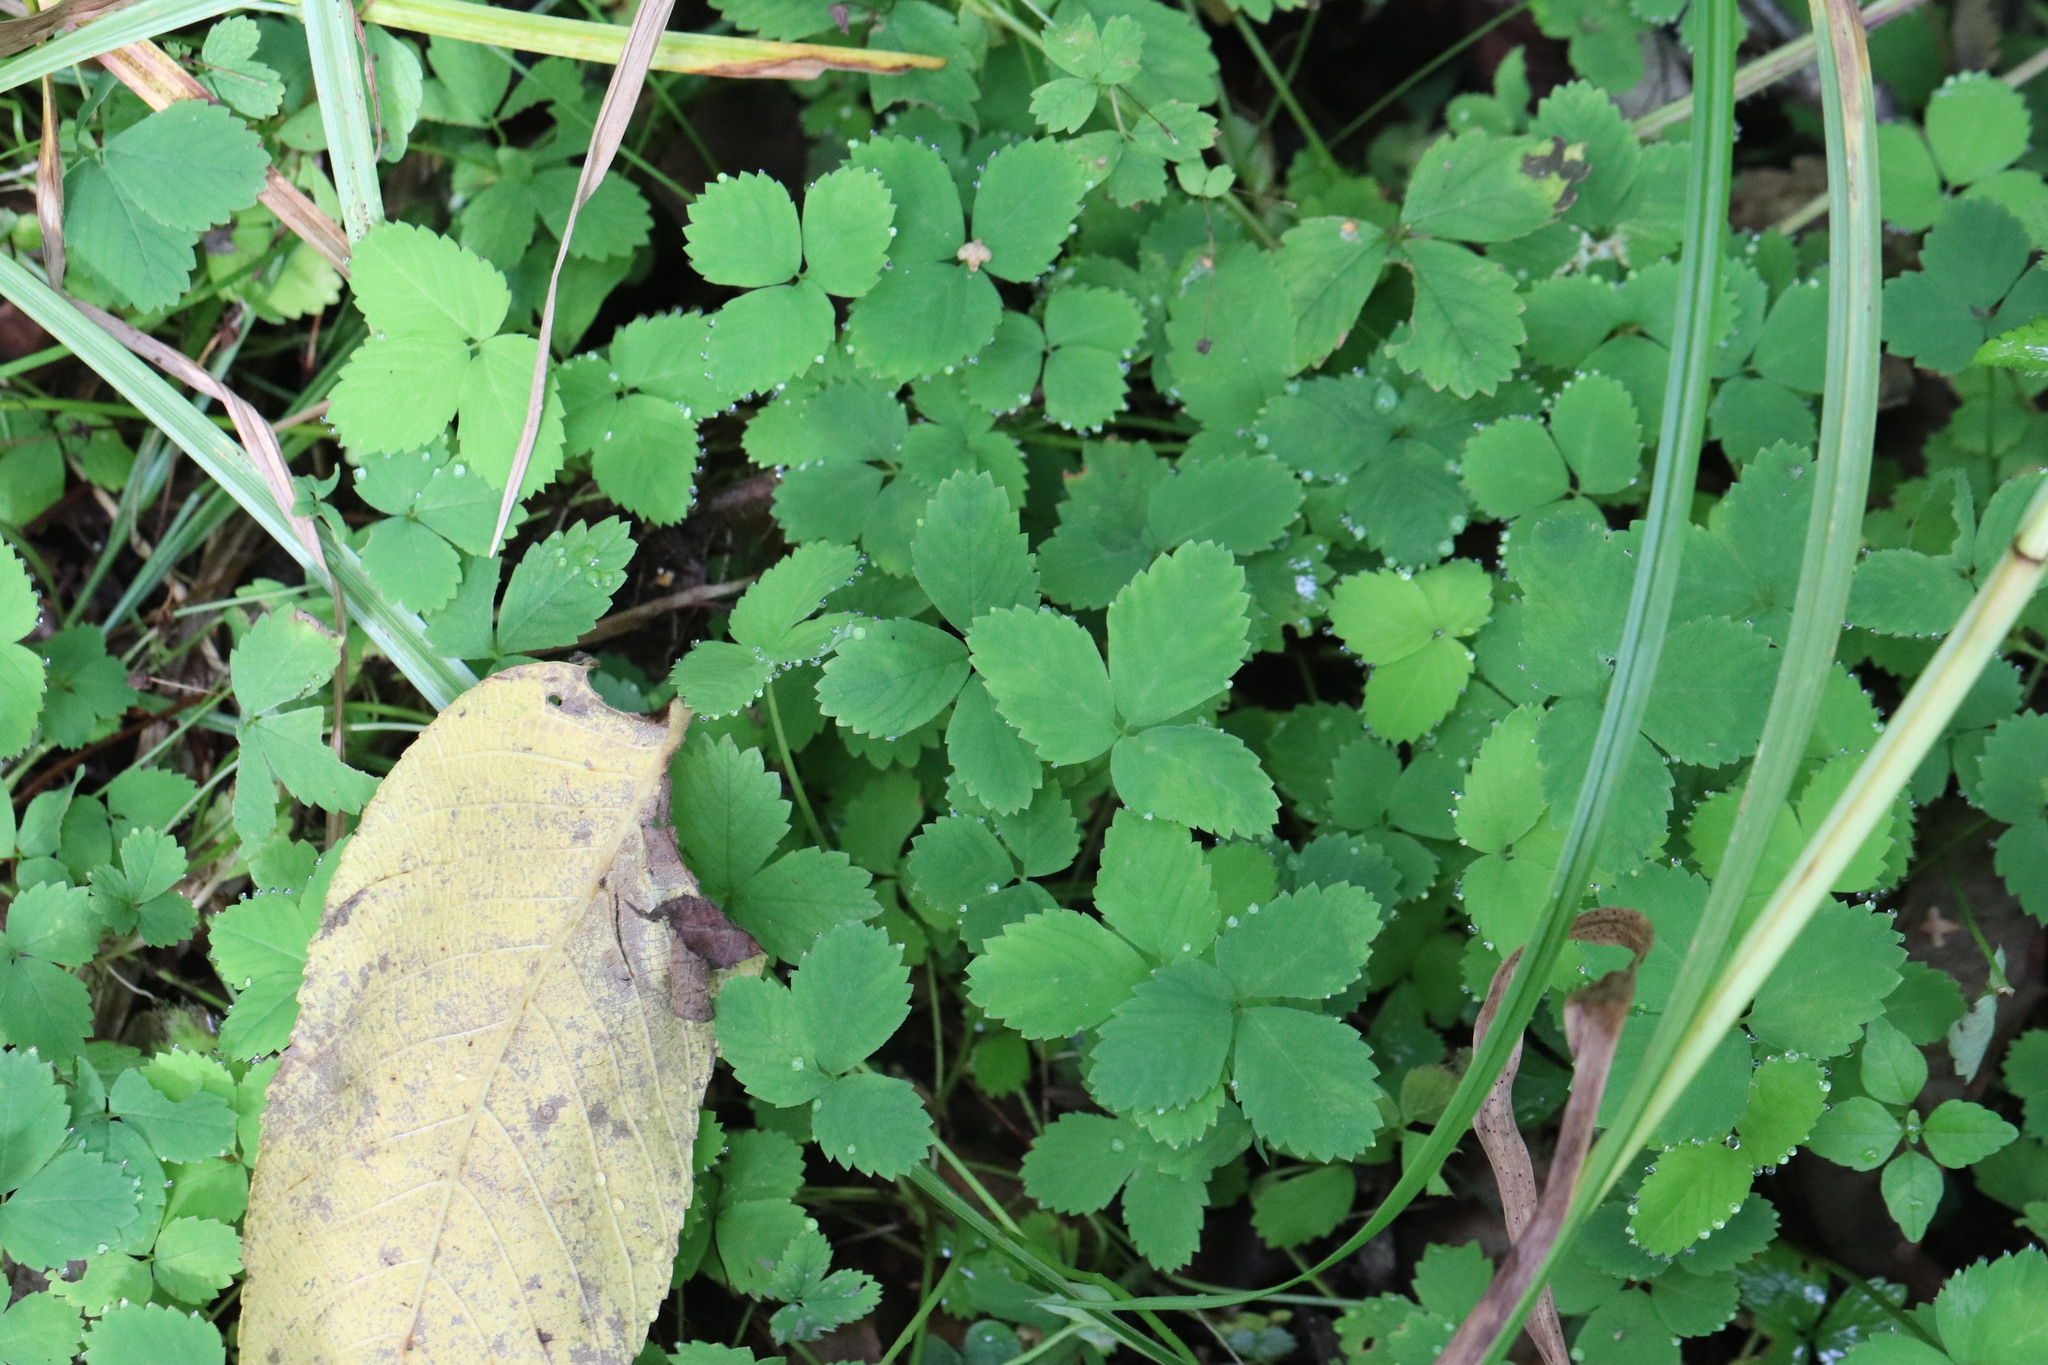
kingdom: Plantae
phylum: Tracheophyta
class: Magnoliopsida
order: Rosales
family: Rosaceae
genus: Potentilla
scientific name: Potentilla centigrana
